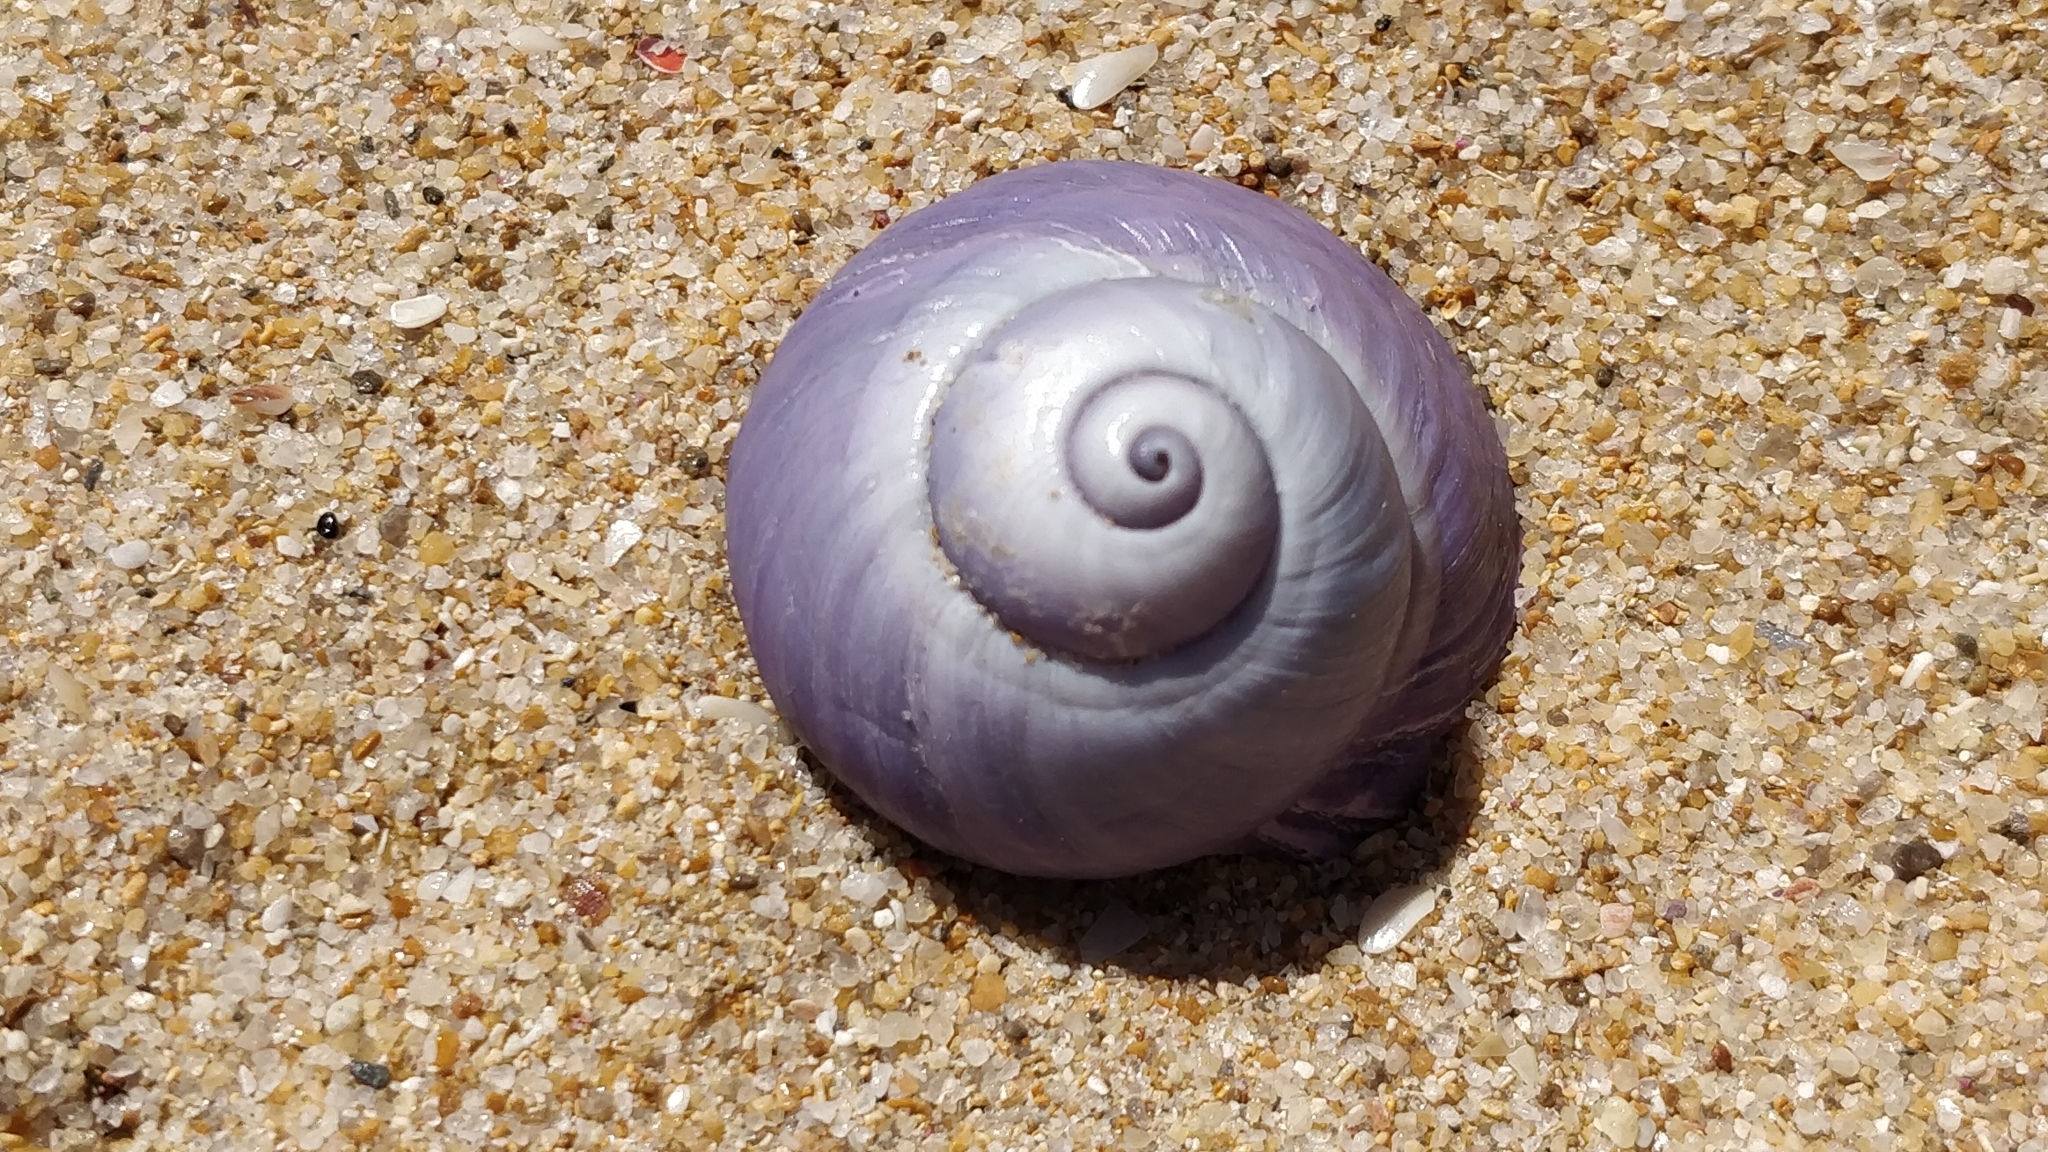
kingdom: Animalia
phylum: Mollusca
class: Gastropoda
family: Epitoniidae
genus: Janthina
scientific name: Janthina janthina
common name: Common janthina
